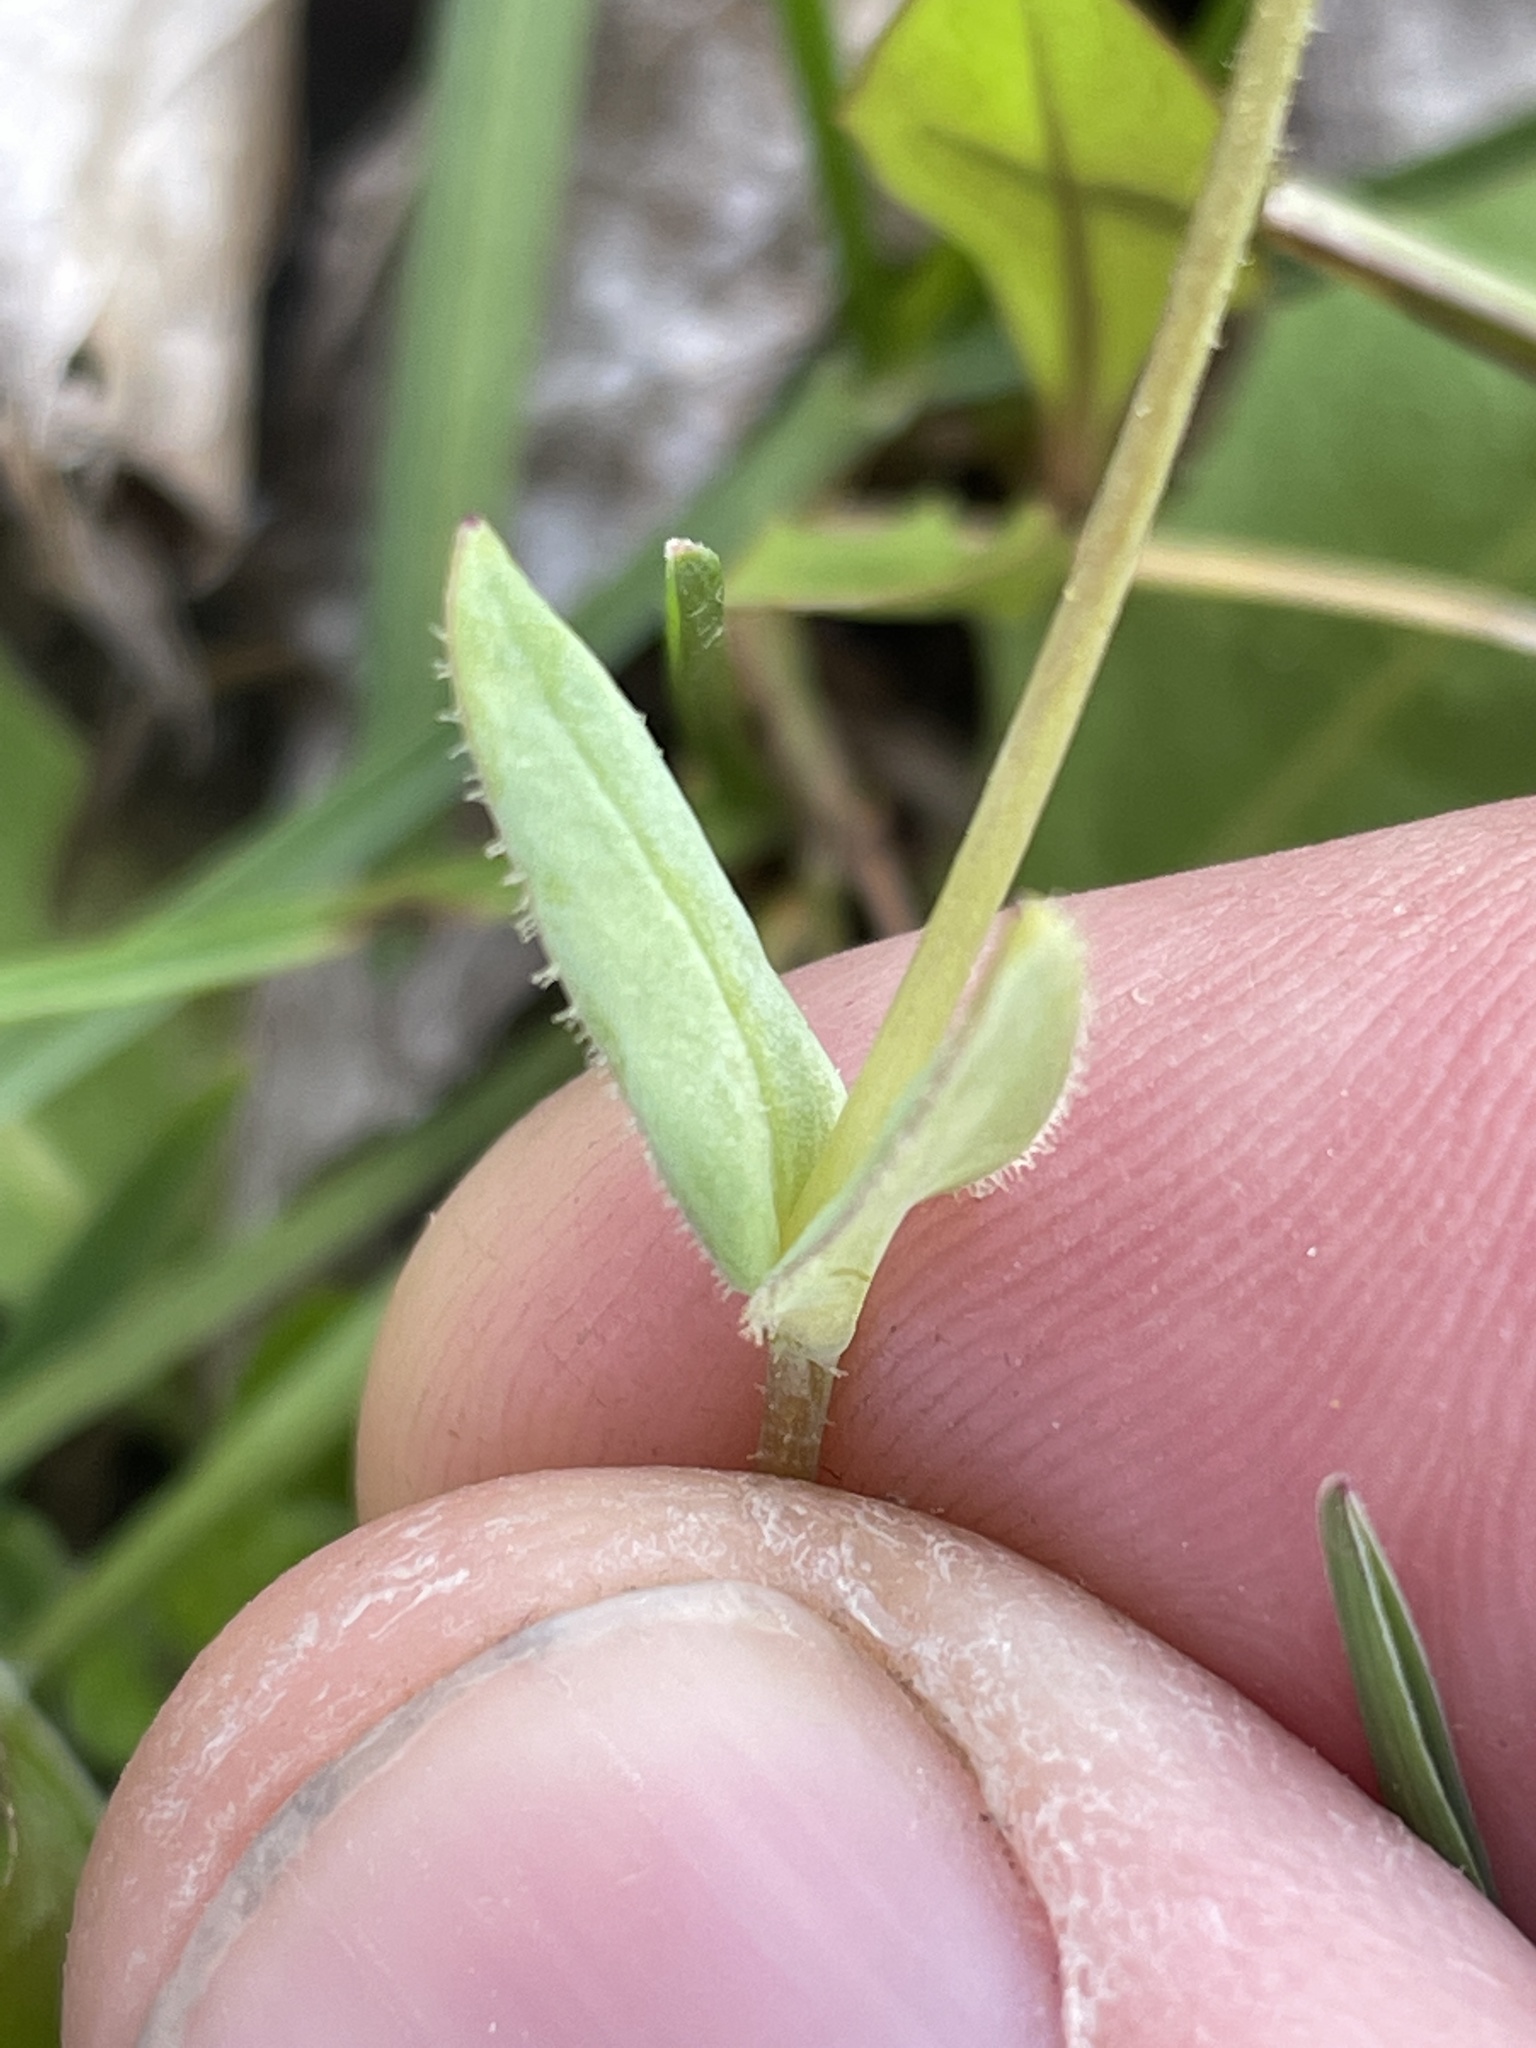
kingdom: Plantae
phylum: Tracheophyta
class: Magnoliopsida
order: Caryophyllales
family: Caryophyllaceae
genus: Holosteum
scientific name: Holosteum umbellatum
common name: Jagged chickweed
